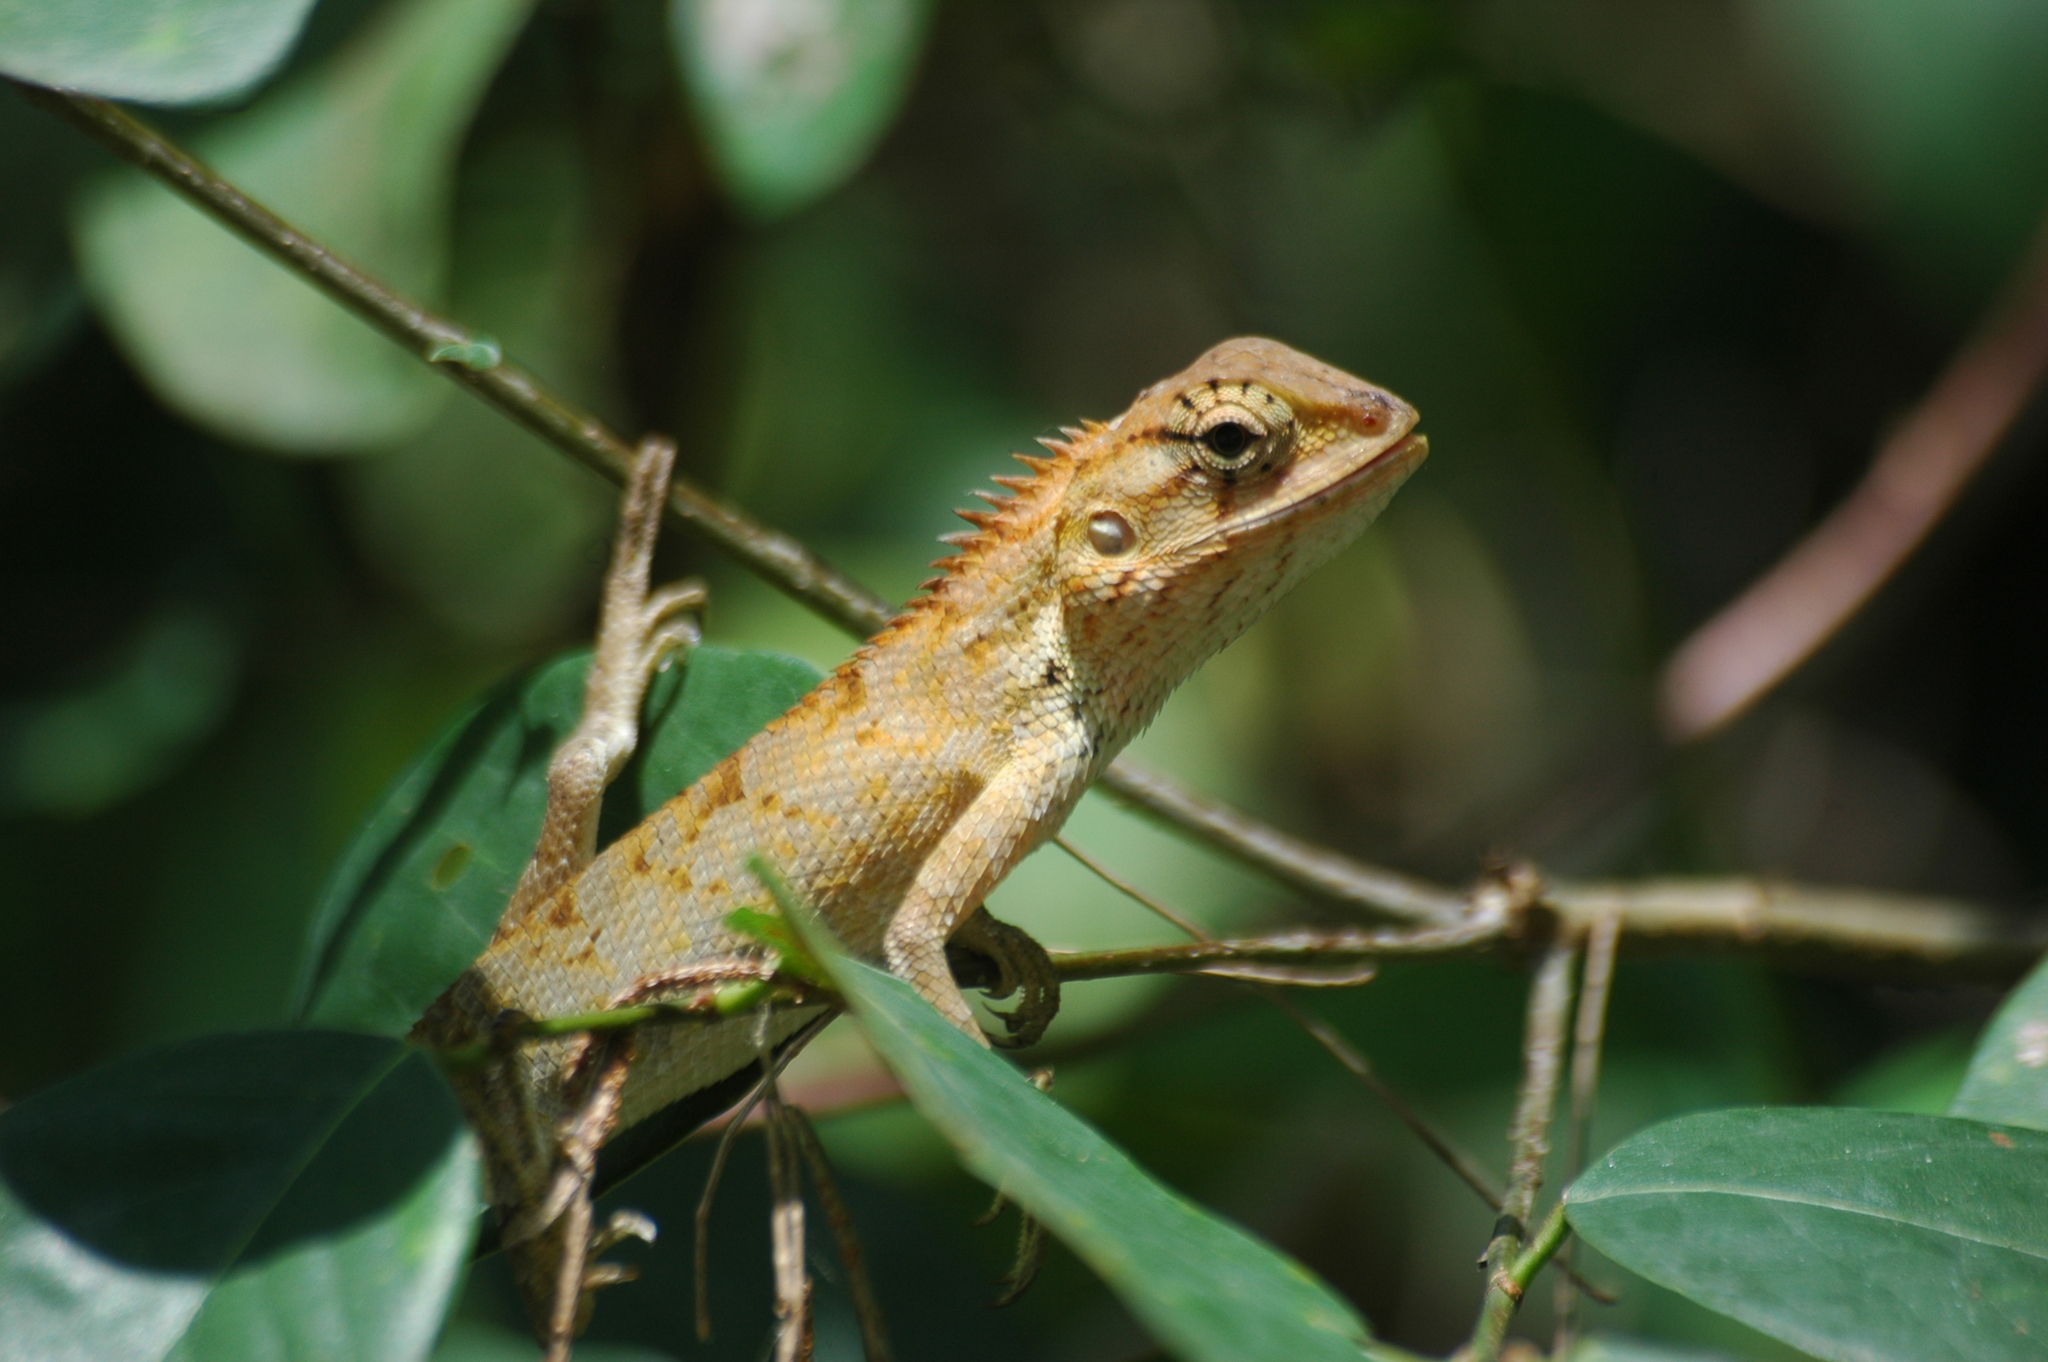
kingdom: Animalia
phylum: Chordata
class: Squamata
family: Agamidae
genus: Calotes
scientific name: Calotes versicolor
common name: Oriental garden lizard
